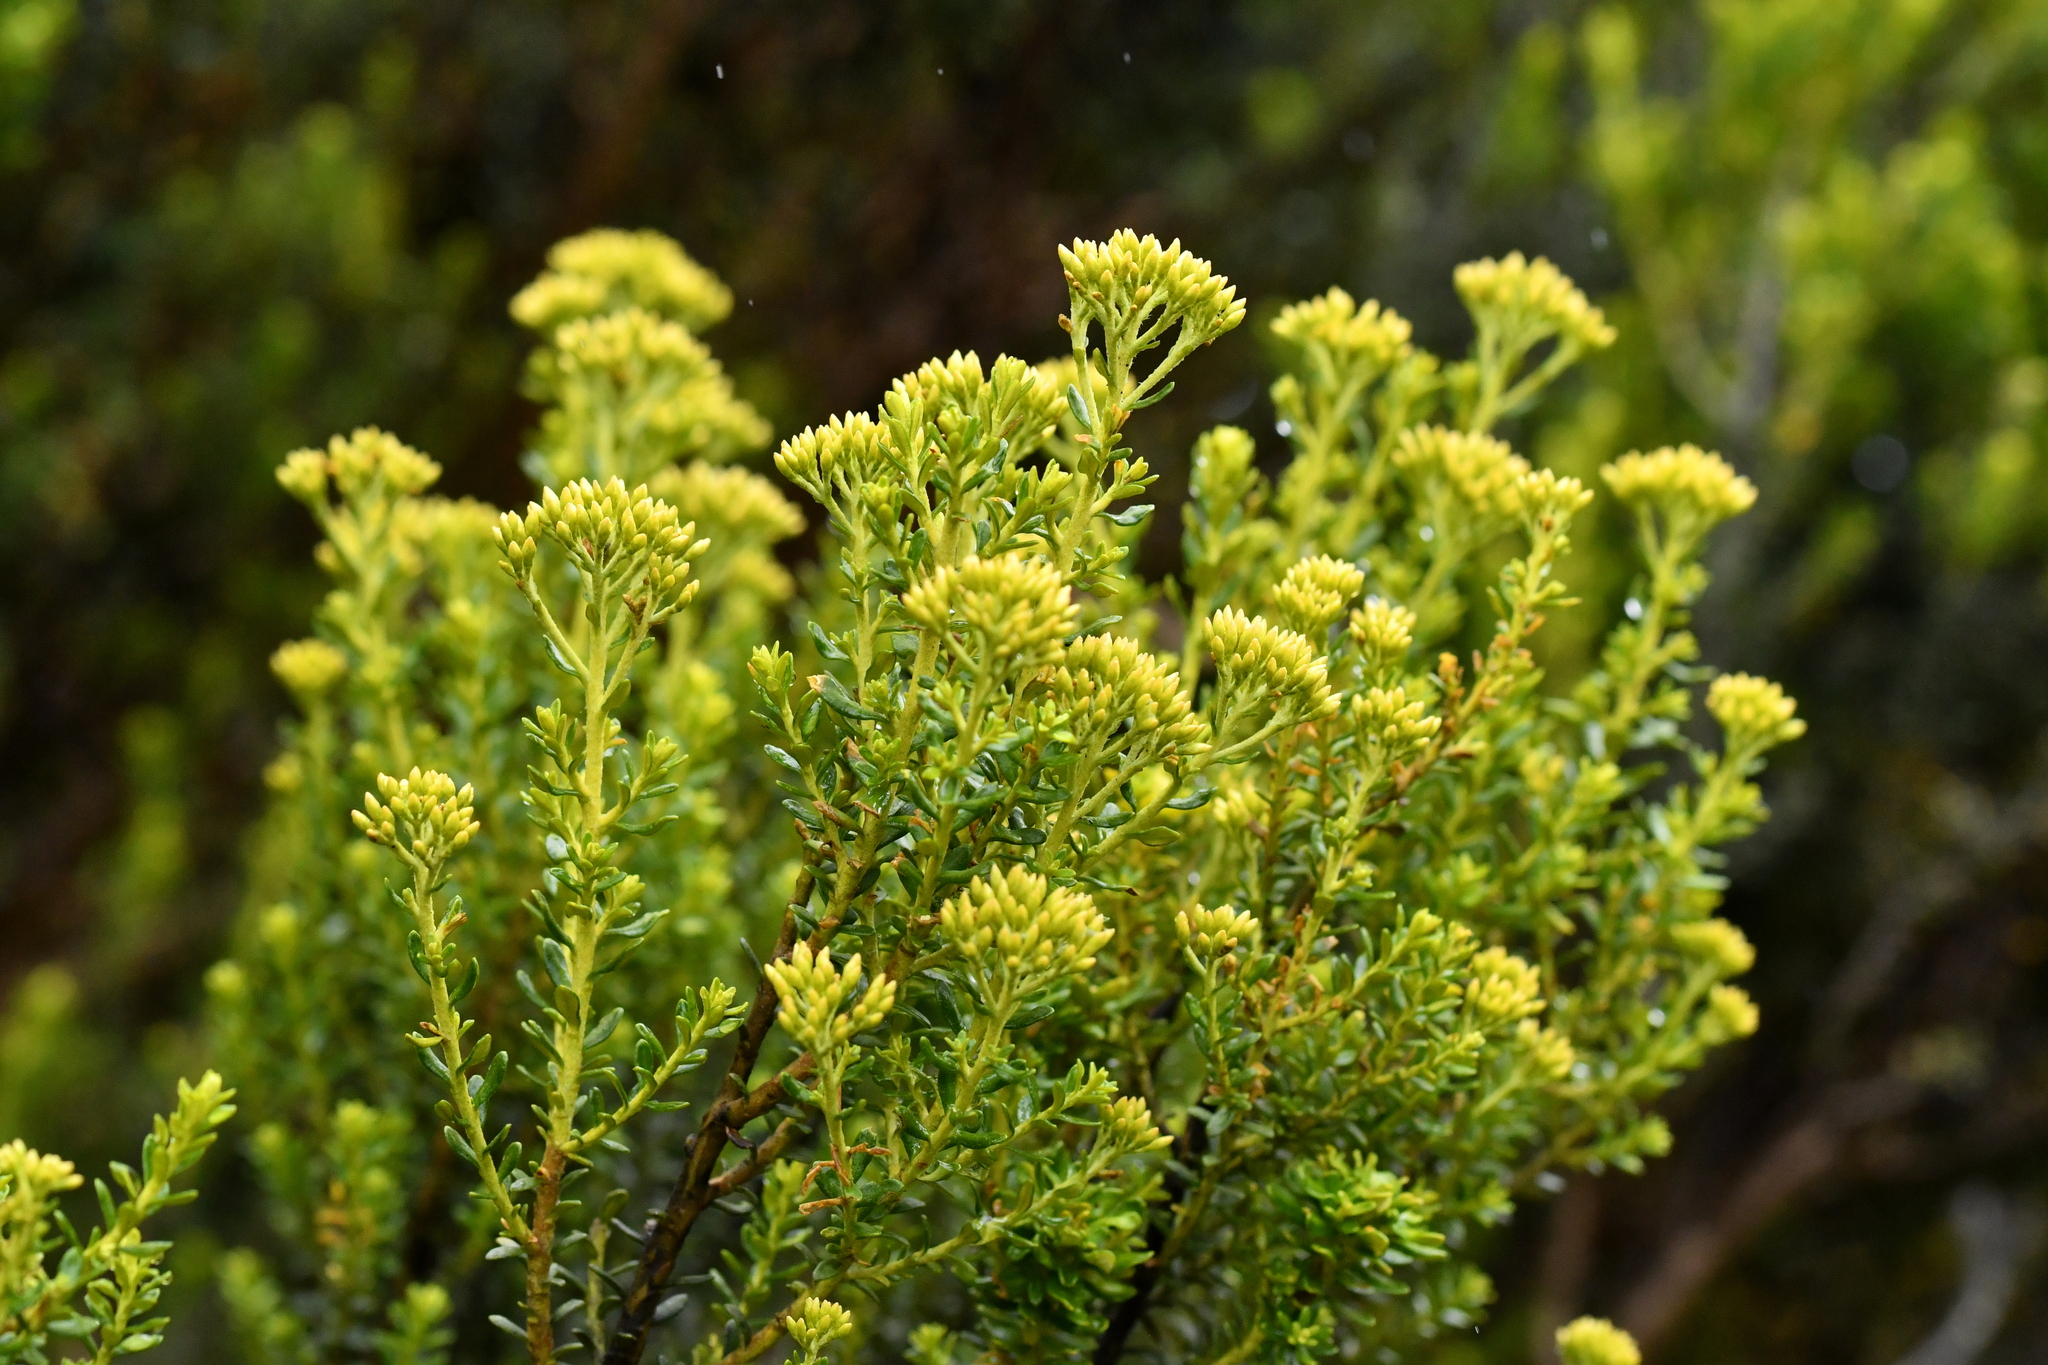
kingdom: Plantae
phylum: Tracheophyta
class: Magnoliopsida
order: Asterales
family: Asteraceae
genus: Ozothamnus
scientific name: Ozothamnus leptophyllus
